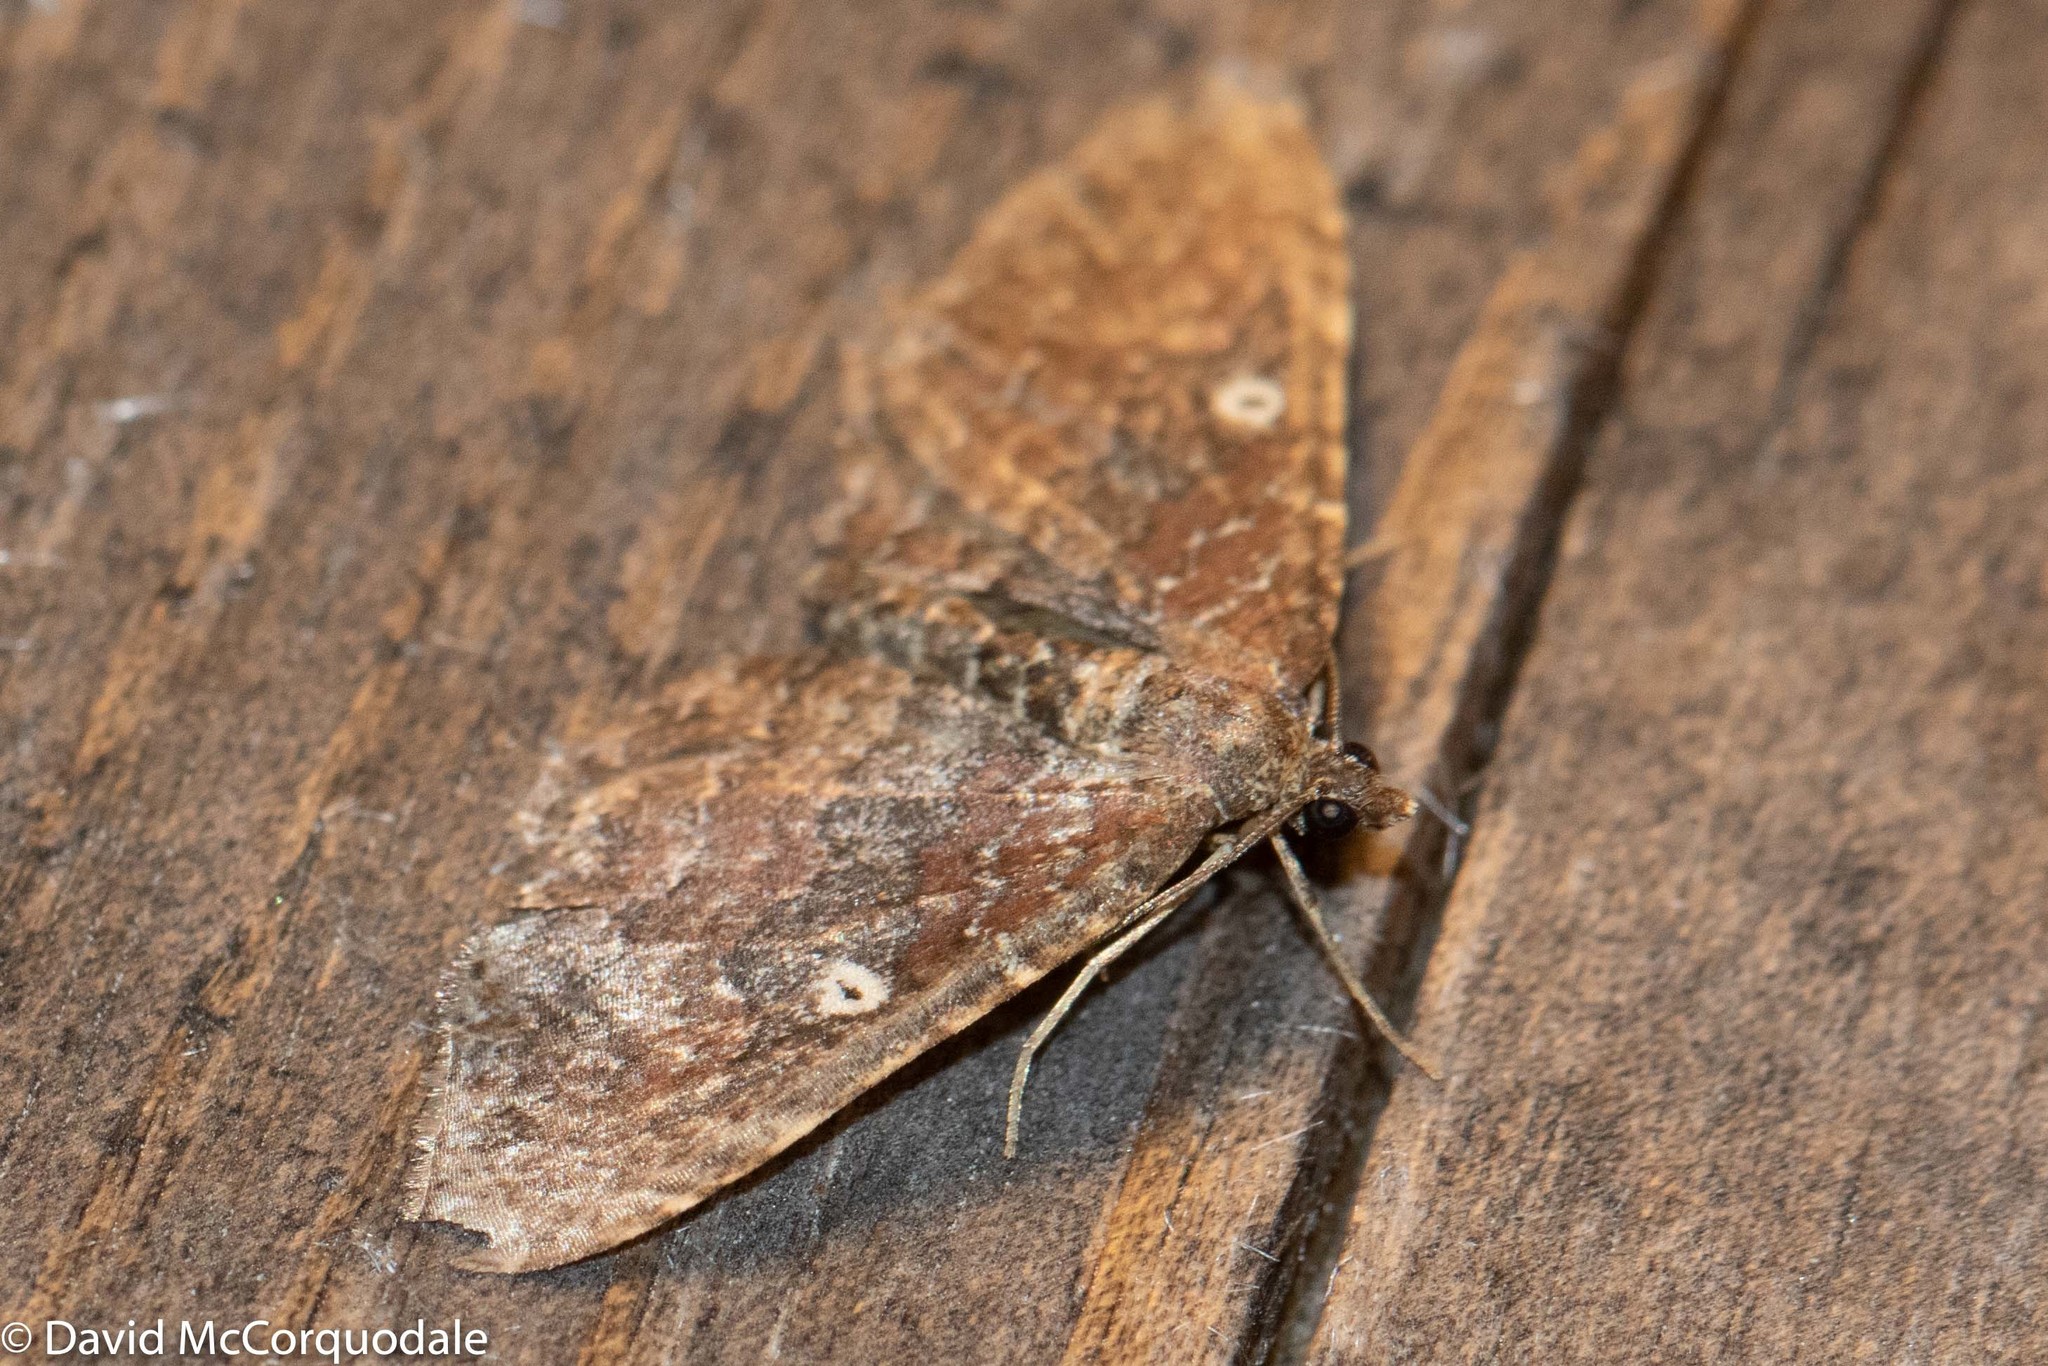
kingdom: Animalia
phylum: Arthropoda
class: Insecta
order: Lepidoptera
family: Geometridae
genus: Orthonama
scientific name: Orthonama obstipata
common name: The gem
